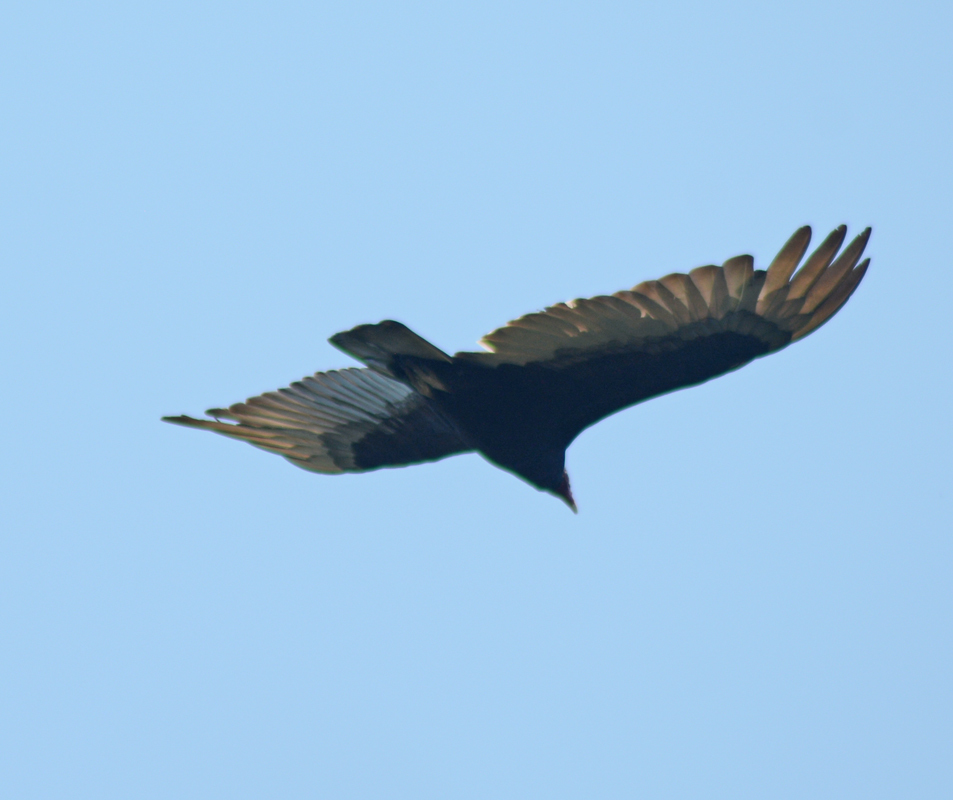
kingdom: Animalia
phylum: Chordata
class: Aves
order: Accipitriformes
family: Cathartidae
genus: Cathartes
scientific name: Cathartes aura
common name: Turkey vulture
